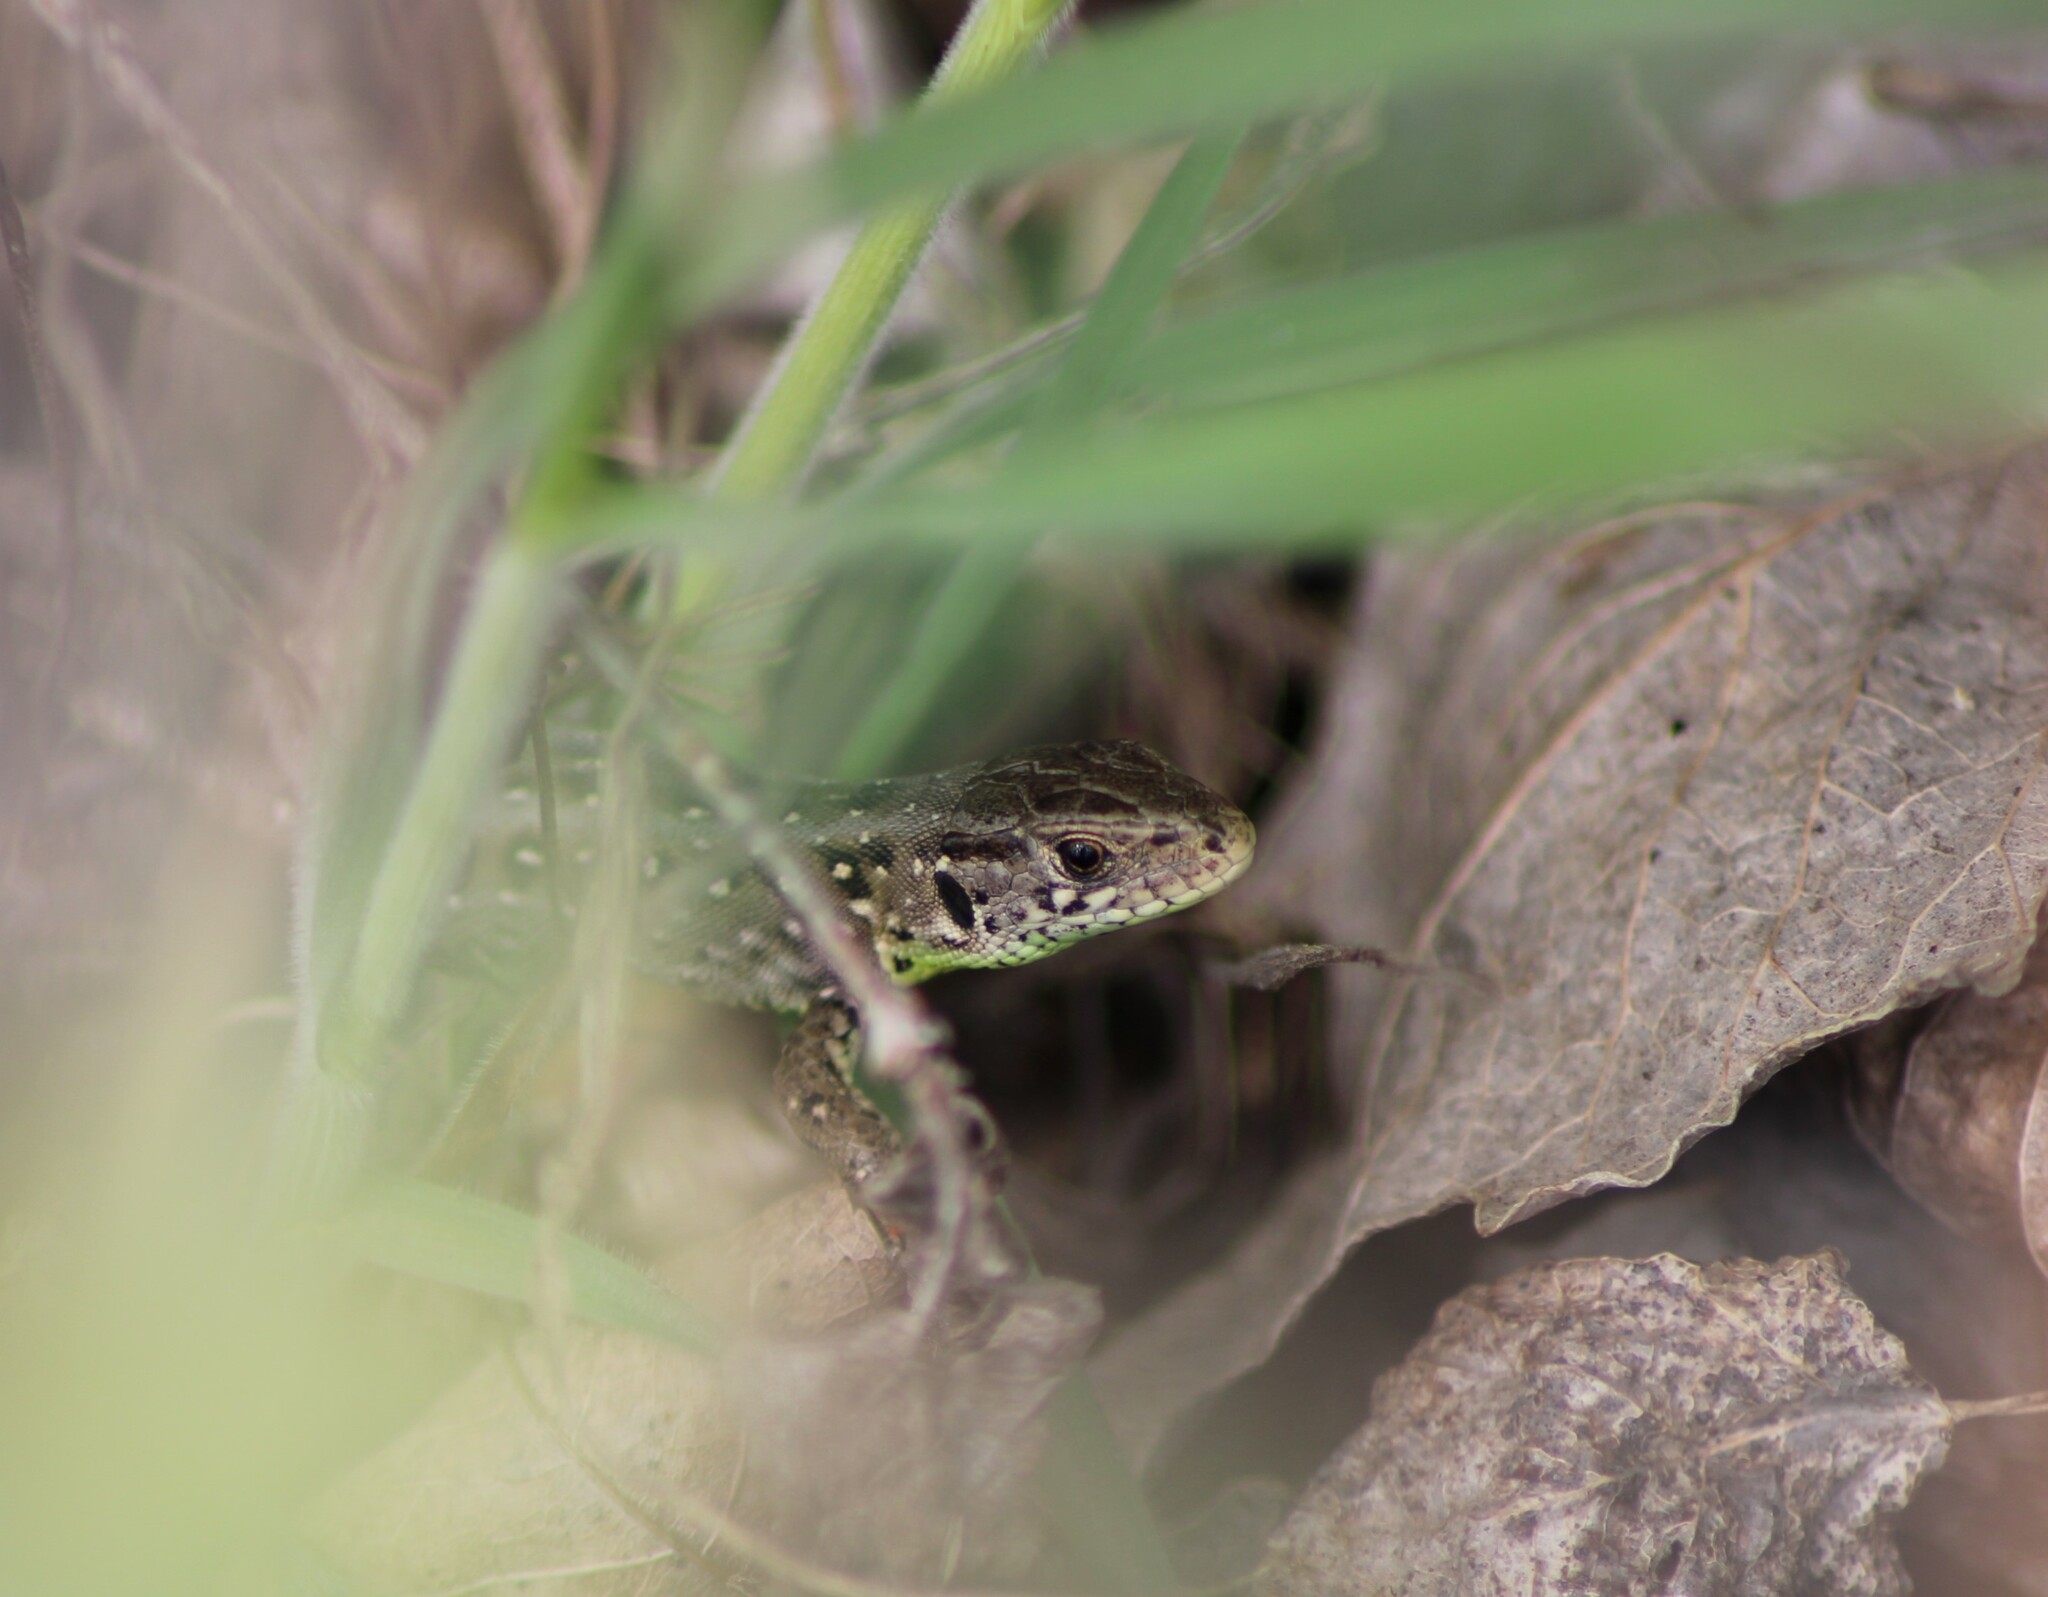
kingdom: Animalia
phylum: Chordata
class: Squamata
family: Lacertidae
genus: Lacerta
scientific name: Lacerta agilis
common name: Sand lizard
